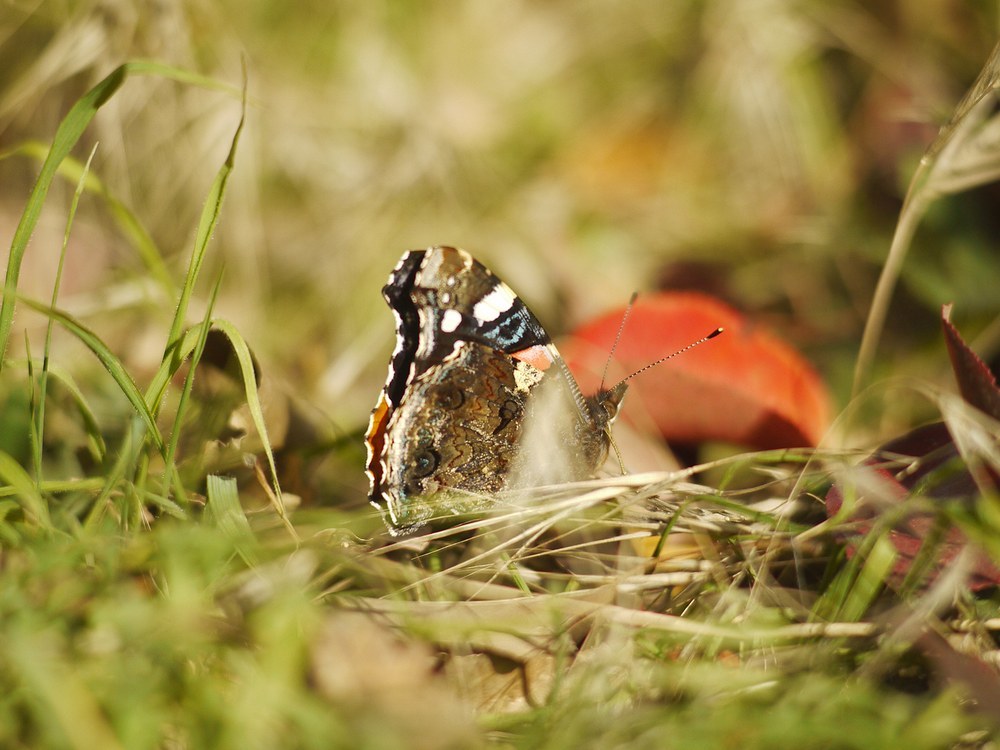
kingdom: Animalia
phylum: Arthropoda
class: Insecta
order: Lepidoptera
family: Nymphalidae
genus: Vanessa
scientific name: Vanessa atalanta
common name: Red admiral
